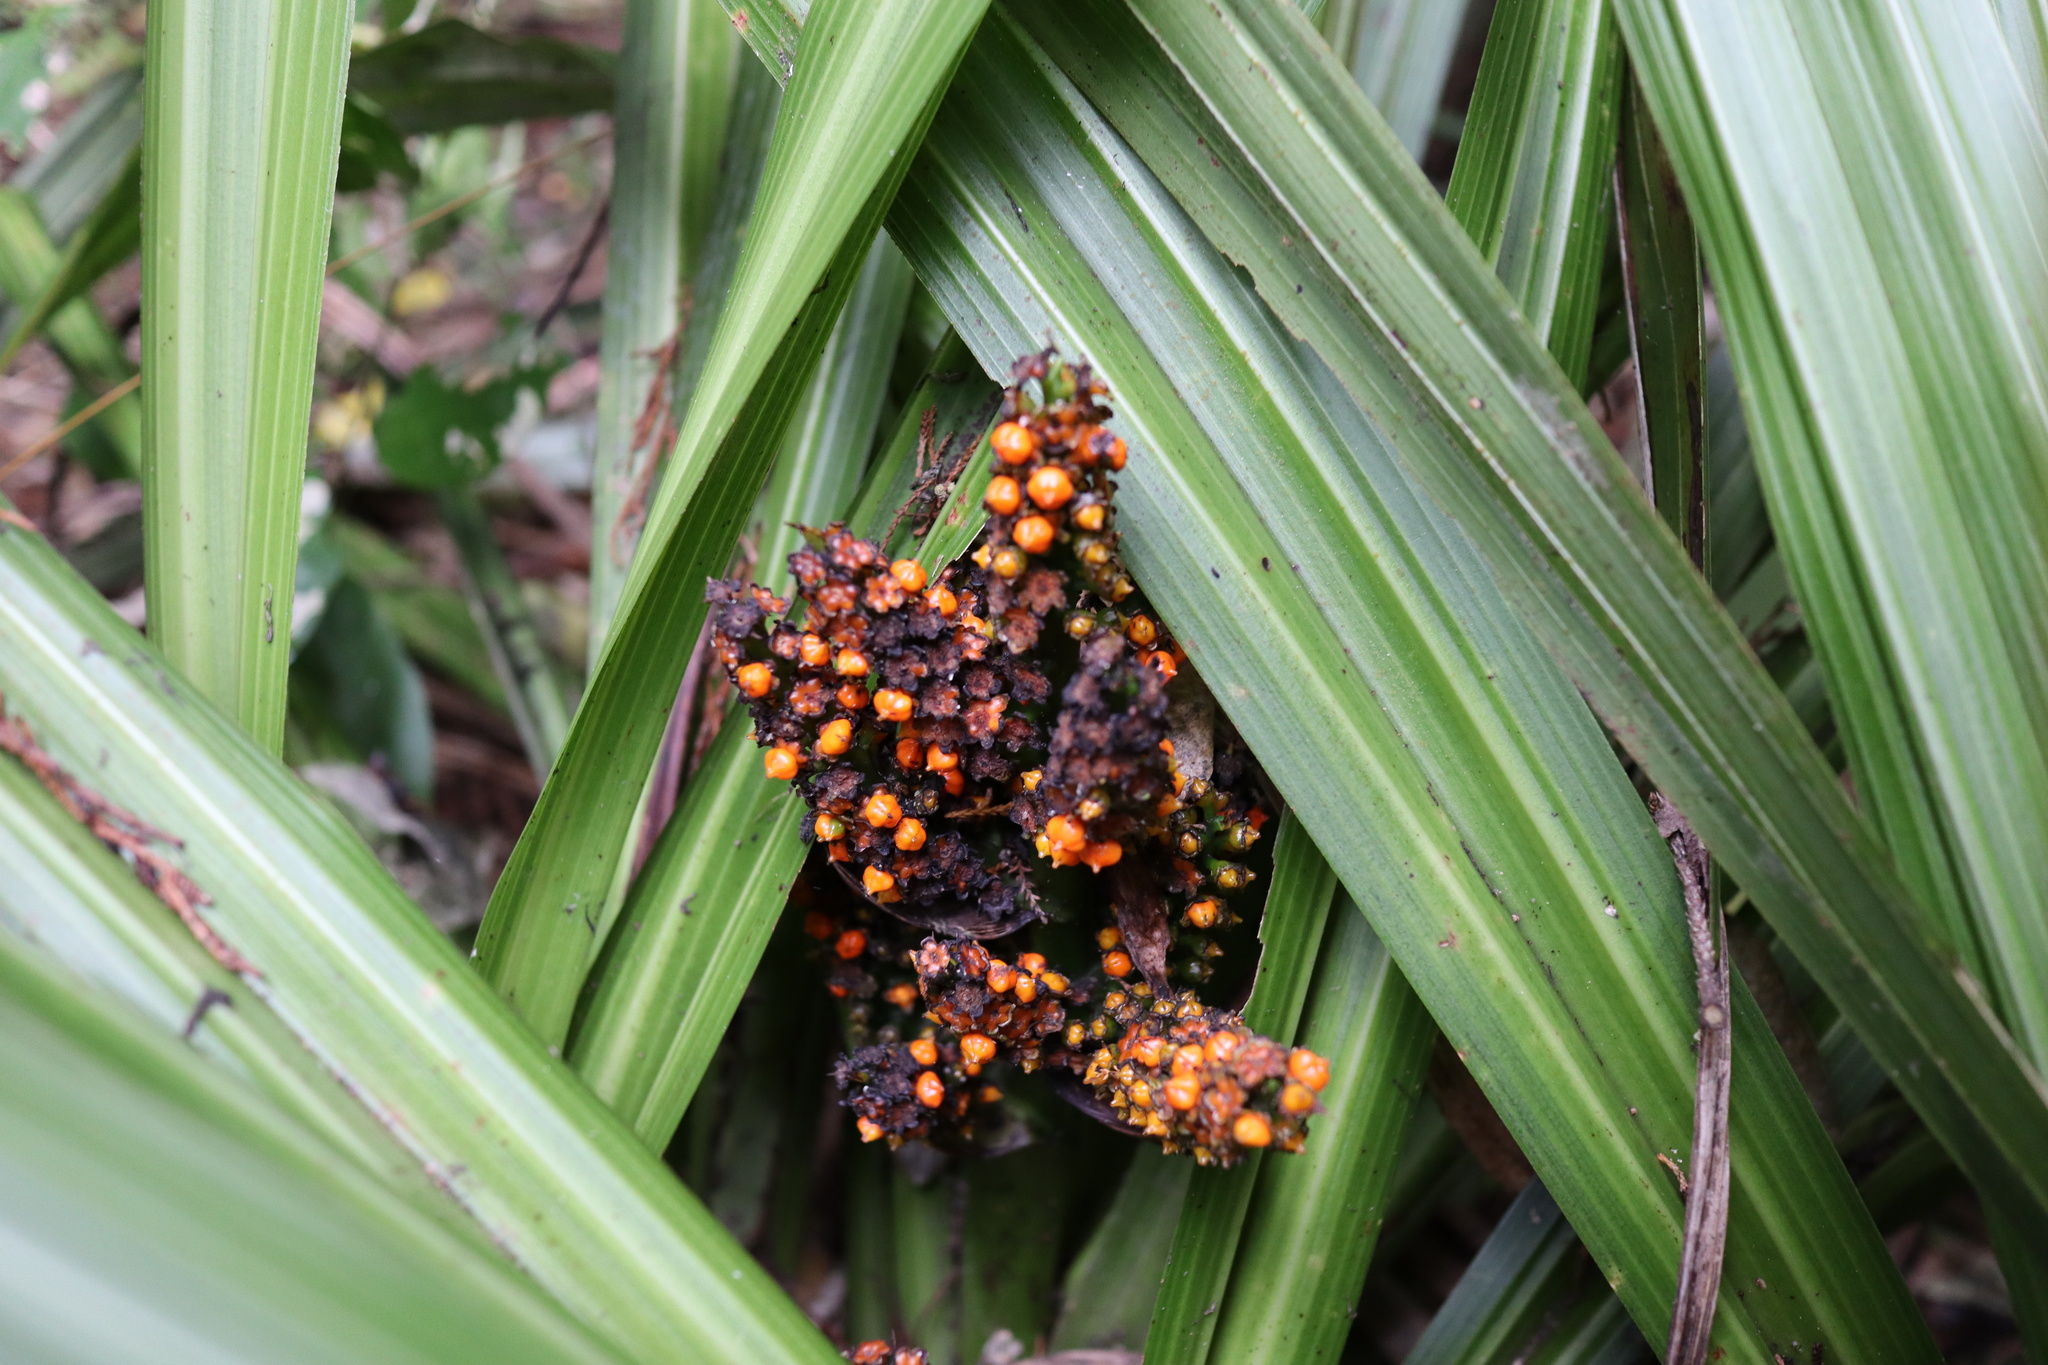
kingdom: Plantae
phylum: Tracheophyta
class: Liliopsida
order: Asparagales
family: Asteliaceae
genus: Astelia
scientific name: Astelia fragrans
